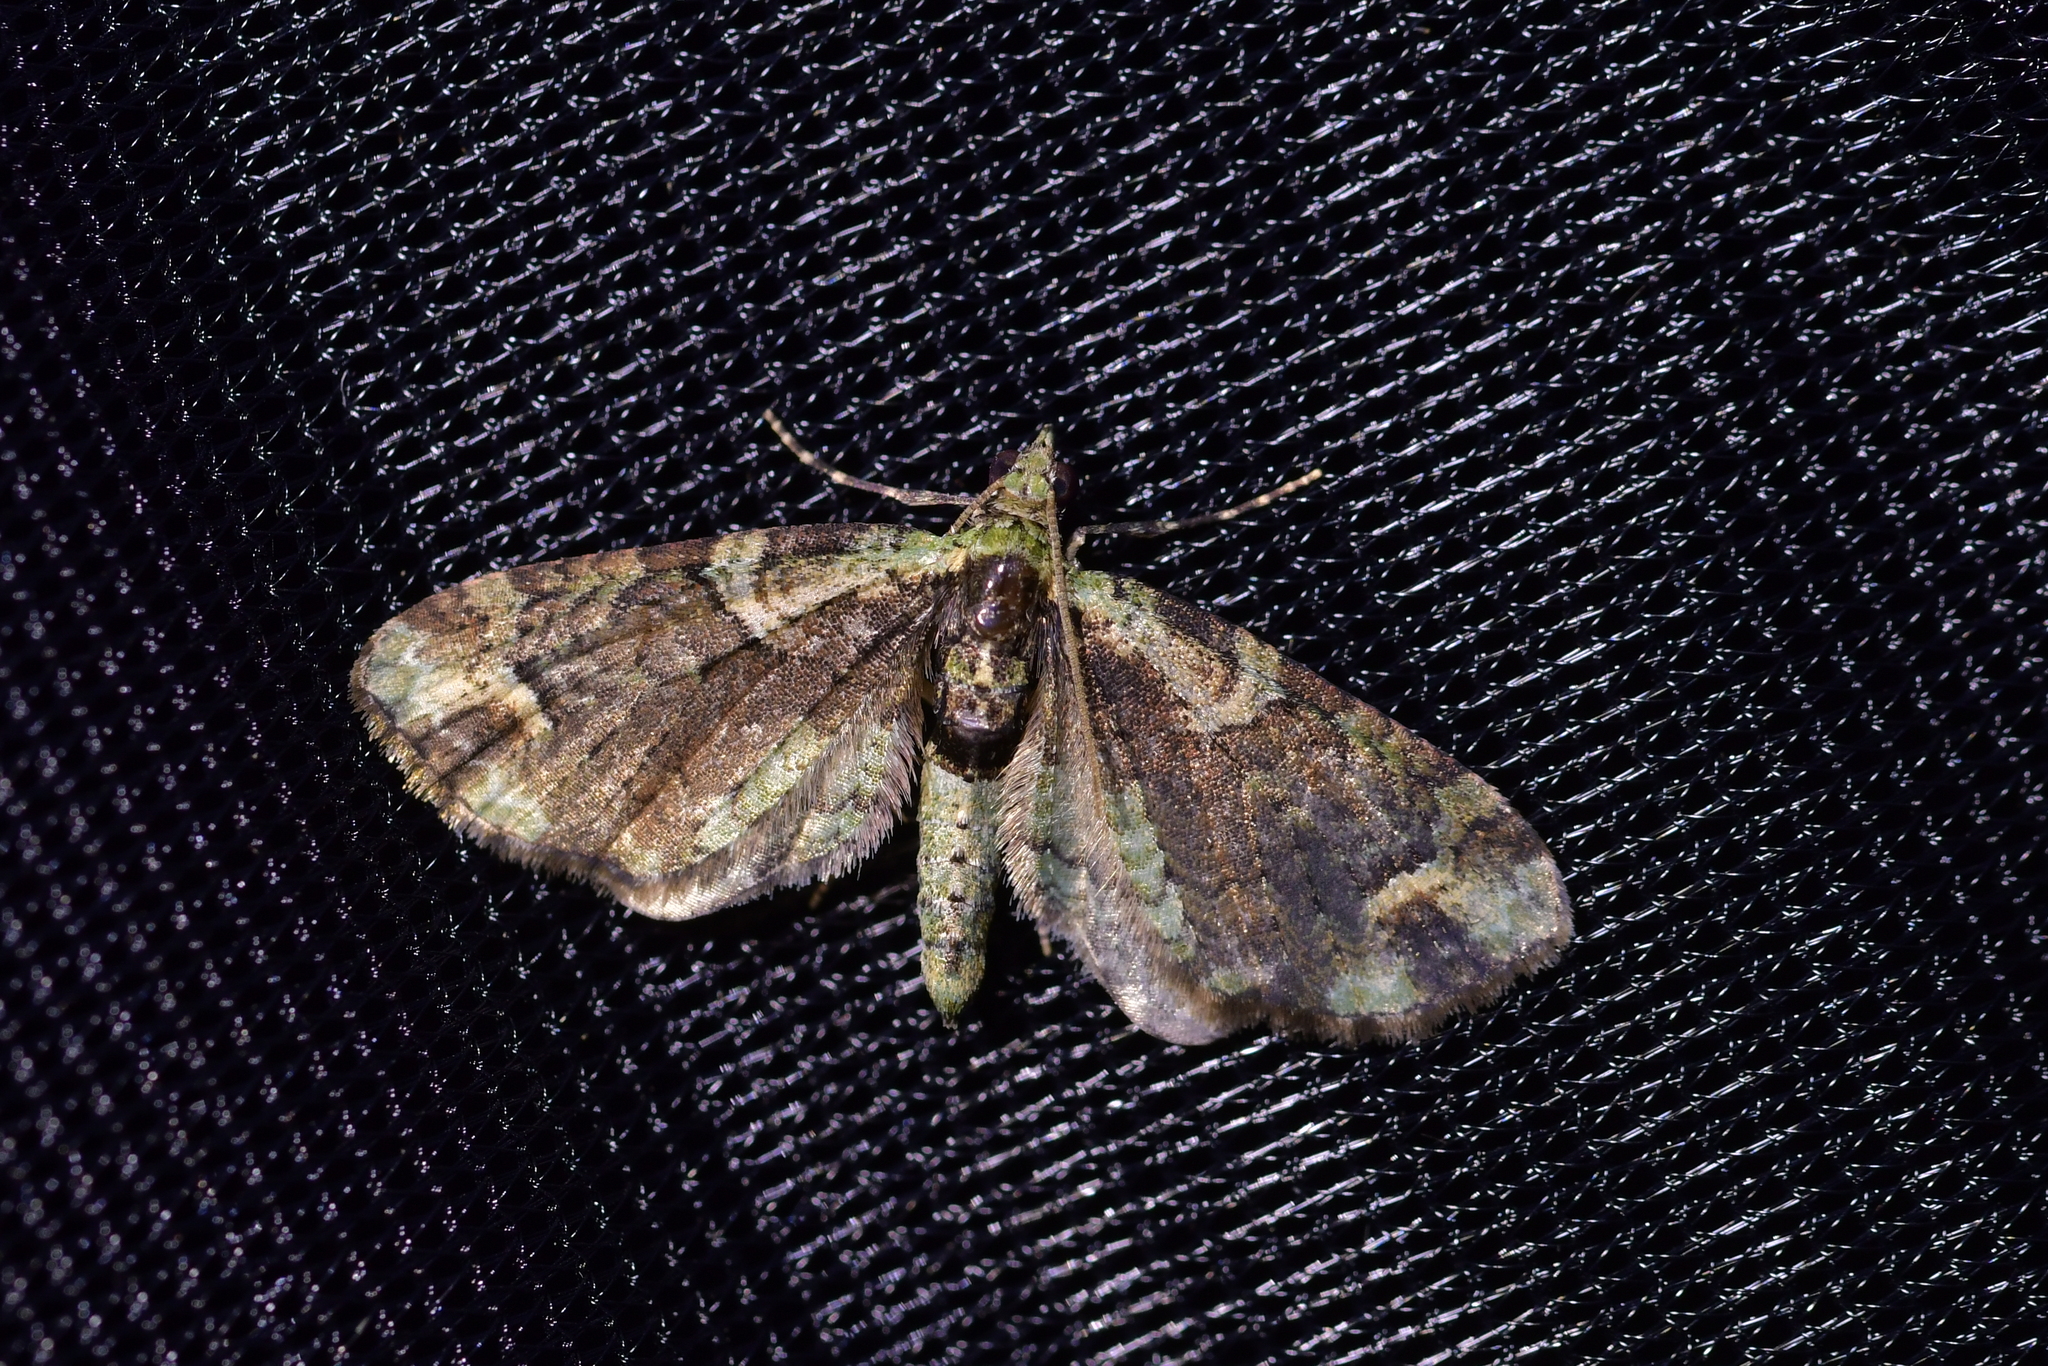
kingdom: Animalia
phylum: Arthropoda
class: Insecta
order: Lepidoptera
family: Geometridae
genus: Idaea
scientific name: Idaea mutanda
